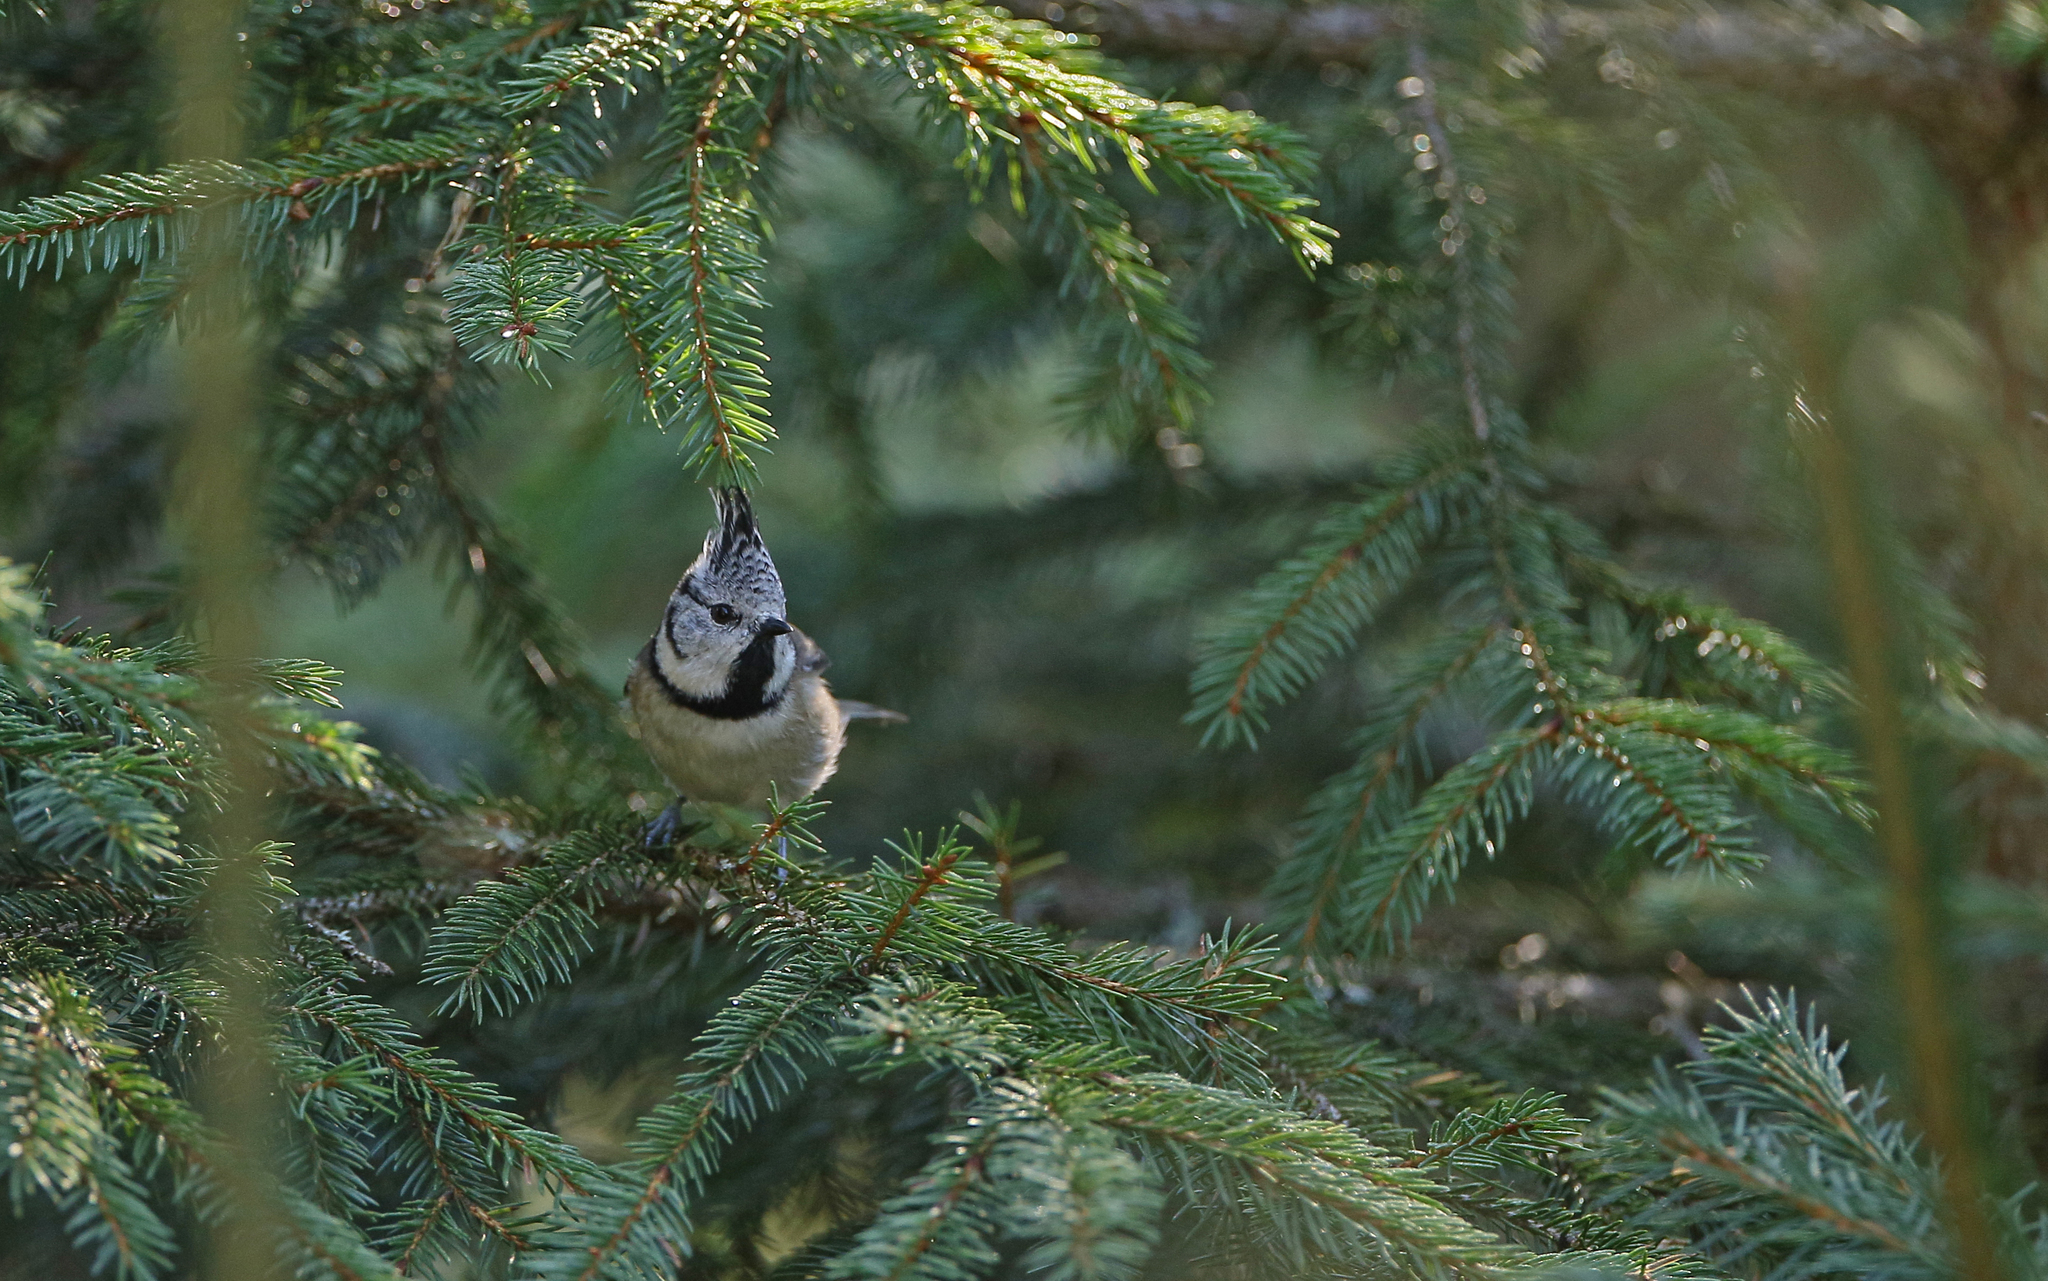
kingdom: Animalia
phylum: Chordata
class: Aves
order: Passeriformes
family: Paridae
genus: Lophophanes
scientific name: Lophophanes cristatus
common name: European crested tit
